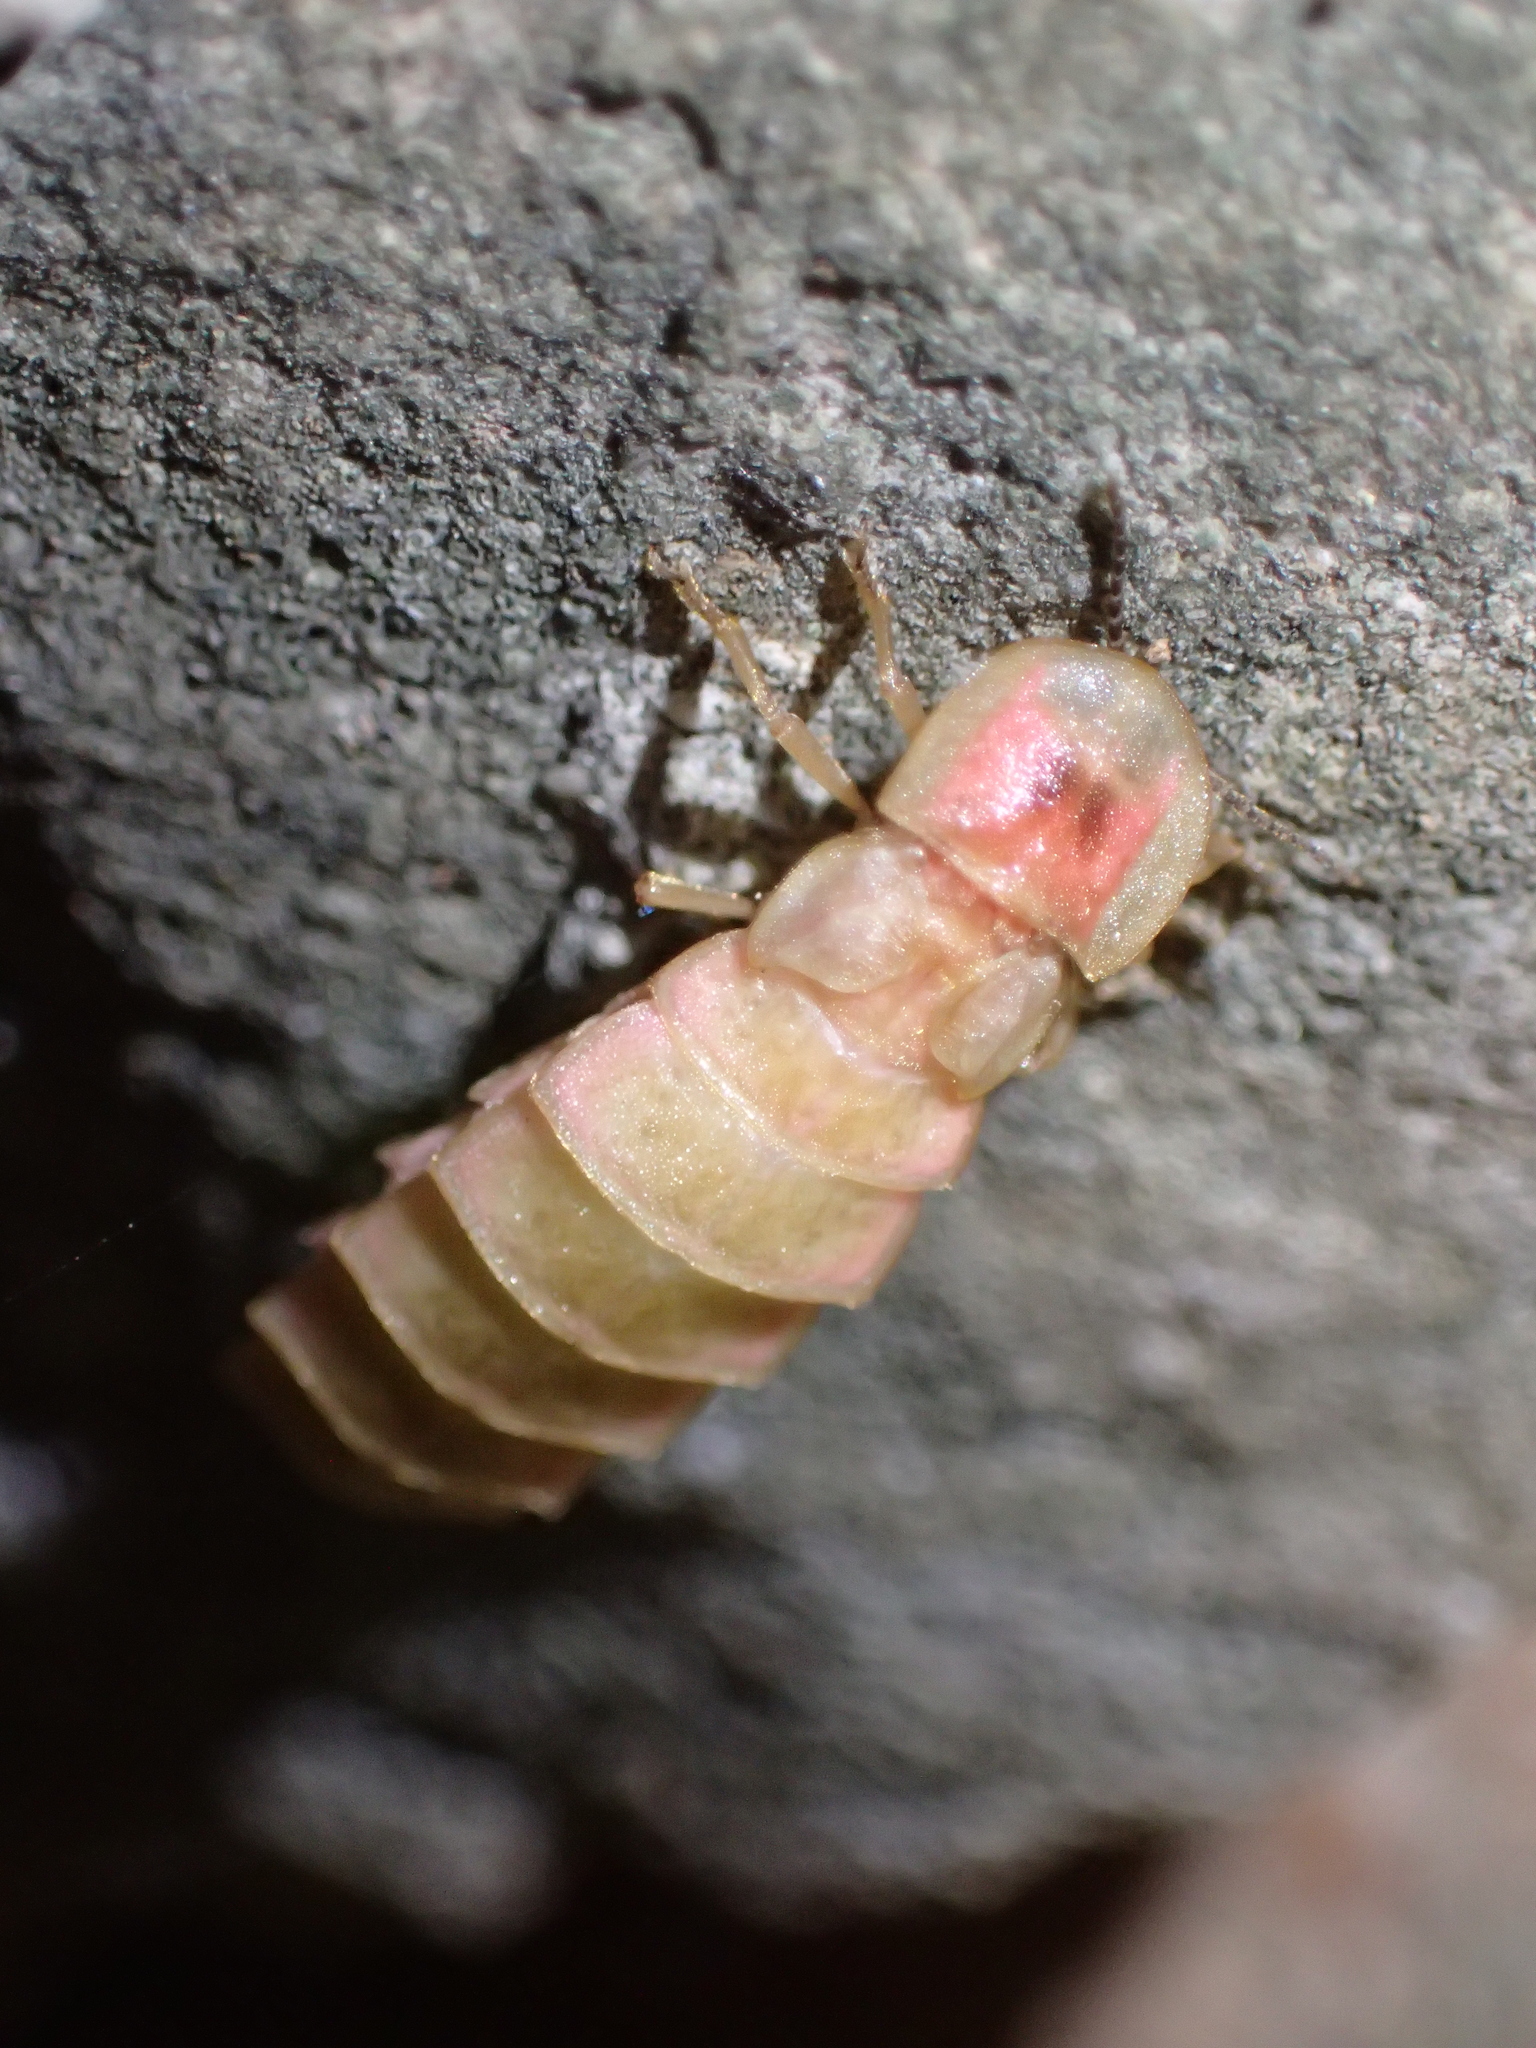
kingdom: Animalia
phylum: Arthropoda
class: Insecta
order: Coleoptera
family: Lampyridae
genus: Lampyris
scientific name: Lampyris noctiluca
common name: Glow-worm
